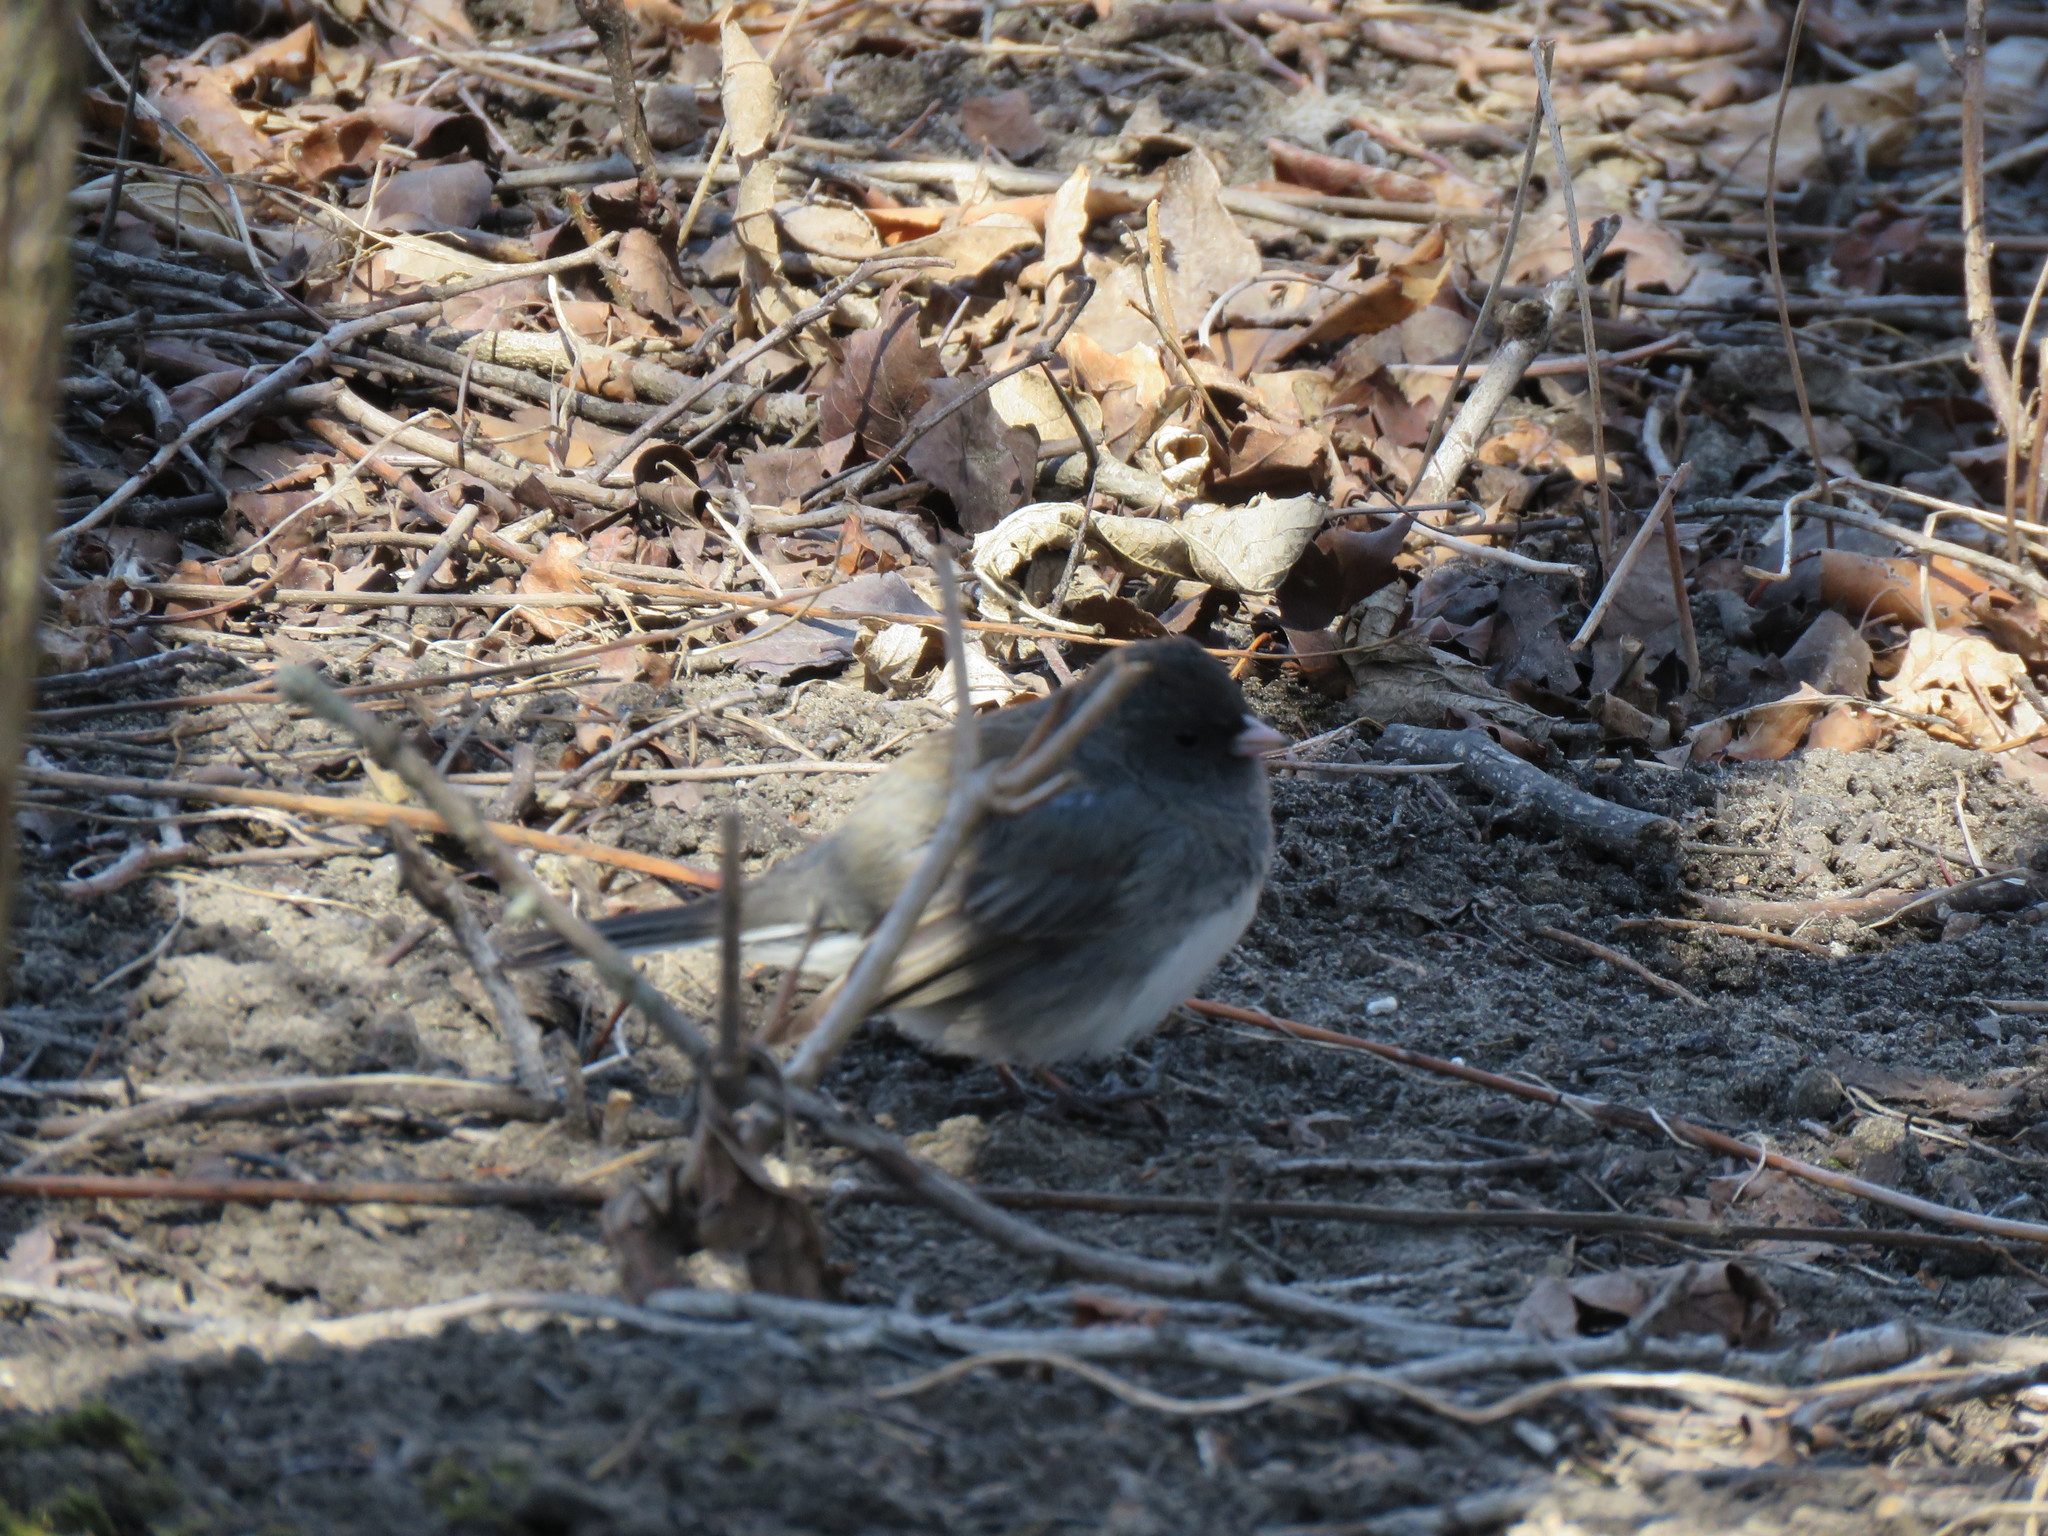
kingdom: Animalia
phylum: Chordata
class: Aves
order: Passeriformes
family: Passerellidae
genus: Junco
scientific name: Junco hyemalis
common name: Dark-eyed junco
